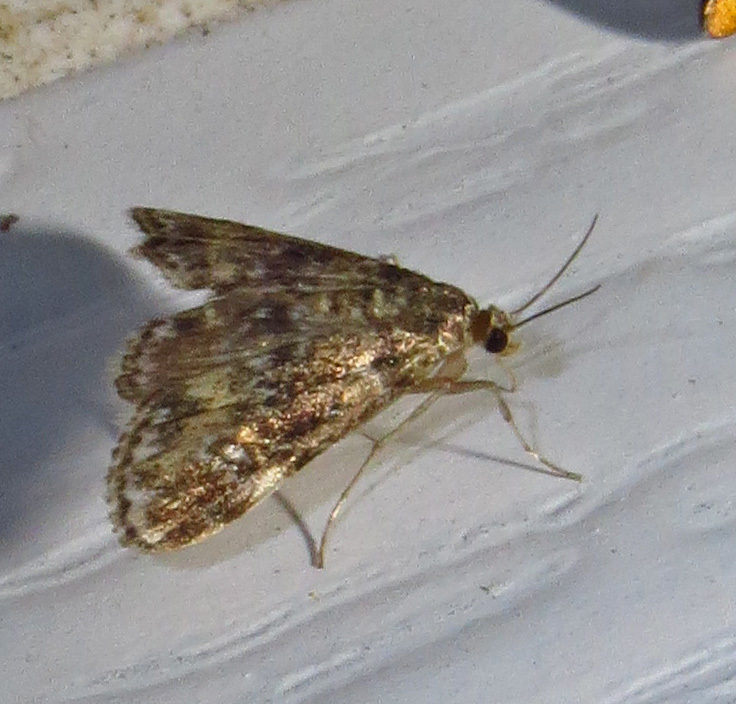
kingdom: Animalia
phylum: Arthropoda
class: Insecta
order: Lepidoptera
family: Crambidae
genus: Elophila
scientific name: Elophila obliteralis
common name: Waterlily leafcutter moth
